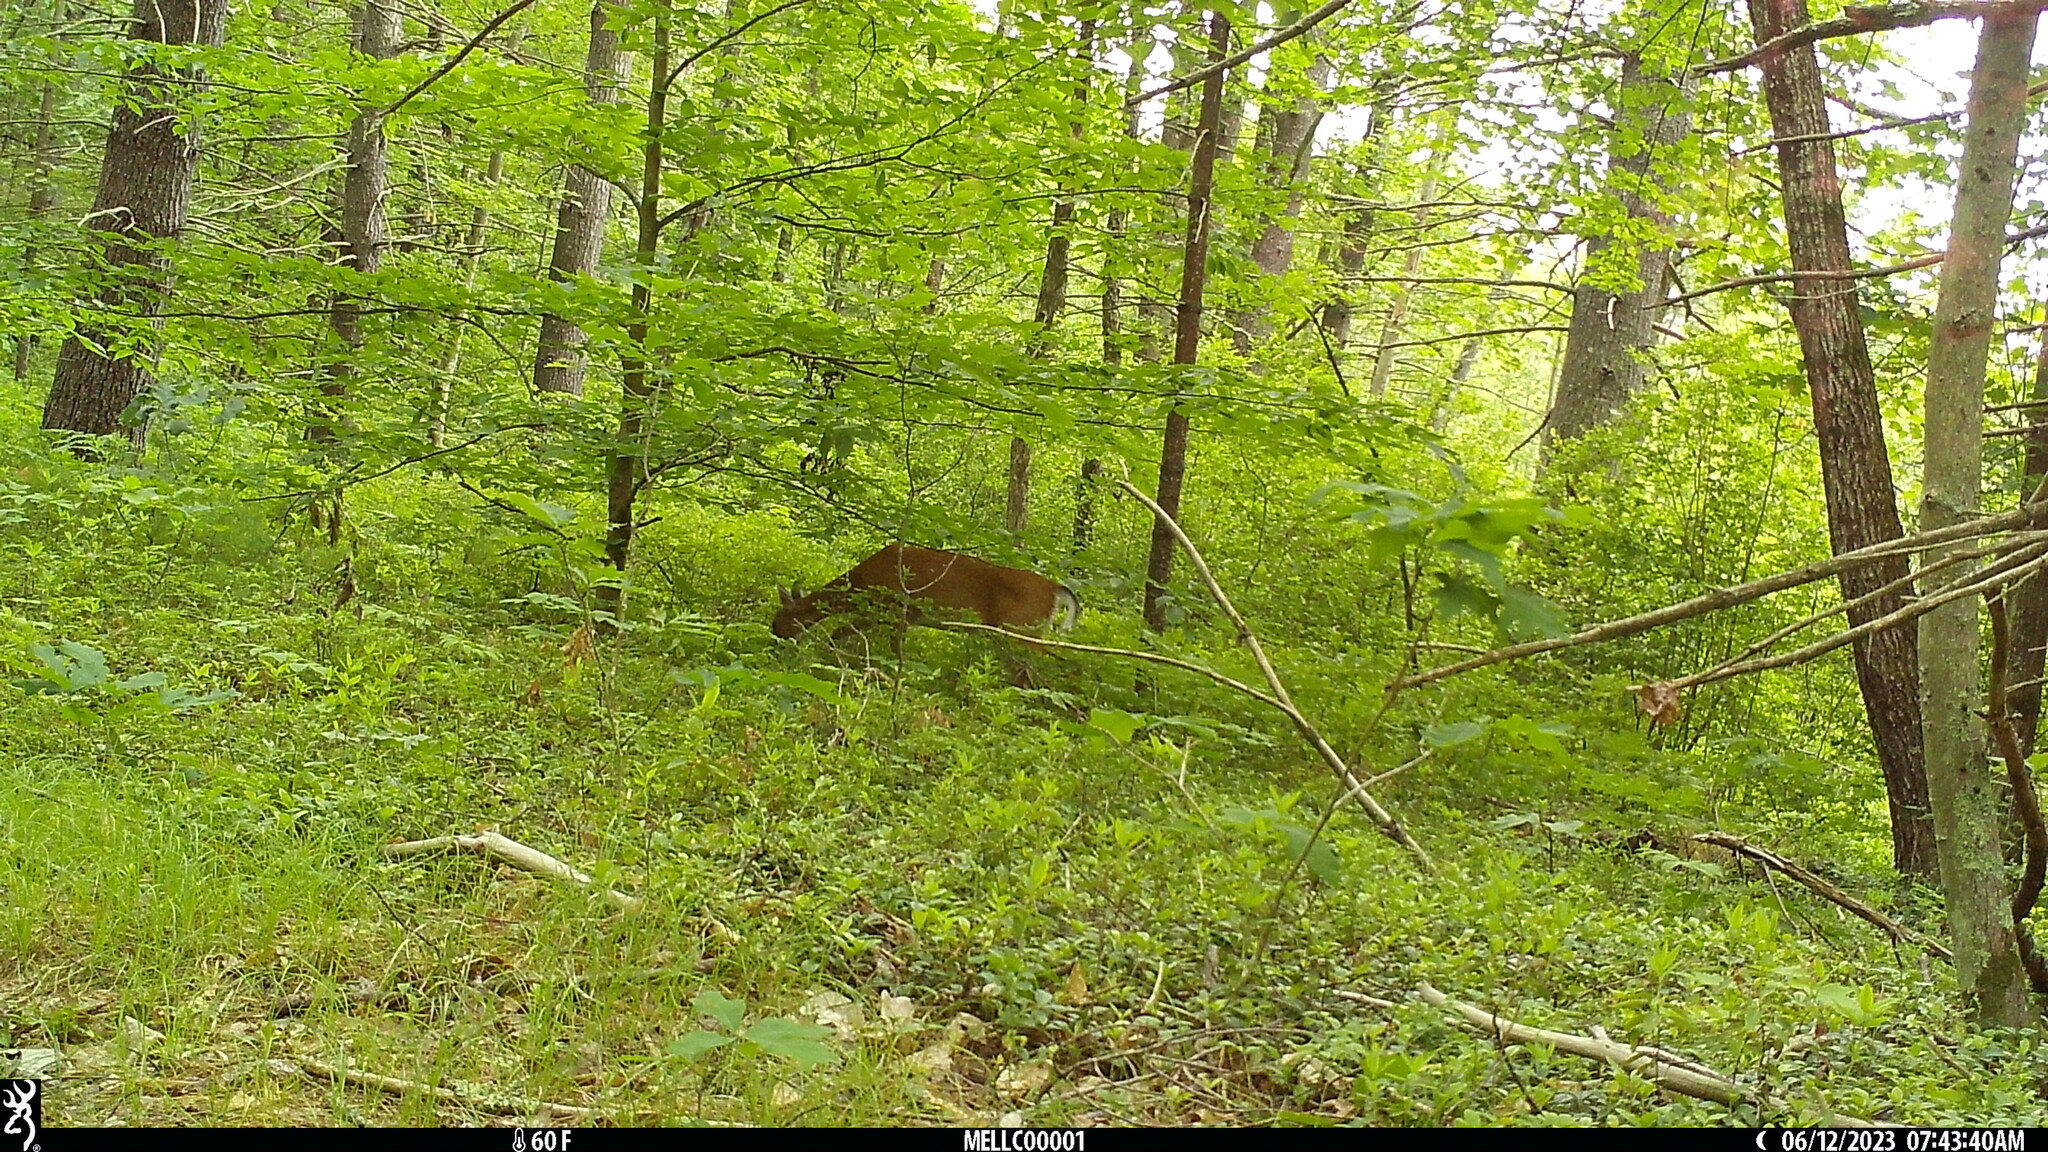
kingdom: Animalia
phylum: Chordata
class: Mammalia
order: Artiodactyla
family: Cervidae
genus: Odocoileus
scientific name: Odocoileus virginianus
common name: White-tailed deer
